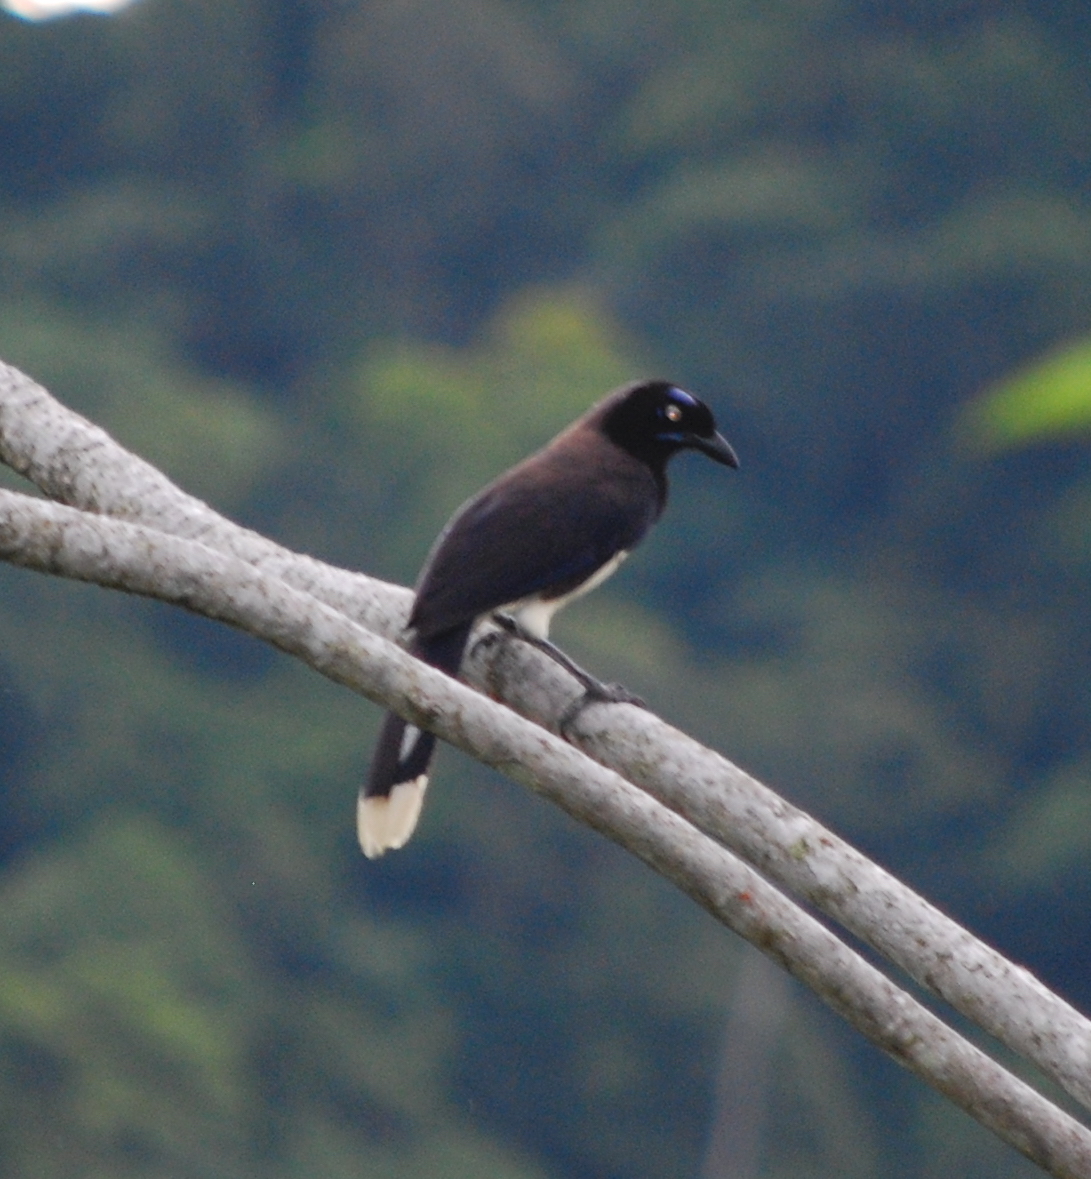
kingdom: Animalia
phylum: Chordata
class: Aves
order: Passeriformes
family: Corvidae
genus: Cyanocorax
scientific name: Cyanocorax affinis
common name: Black-chested jay
